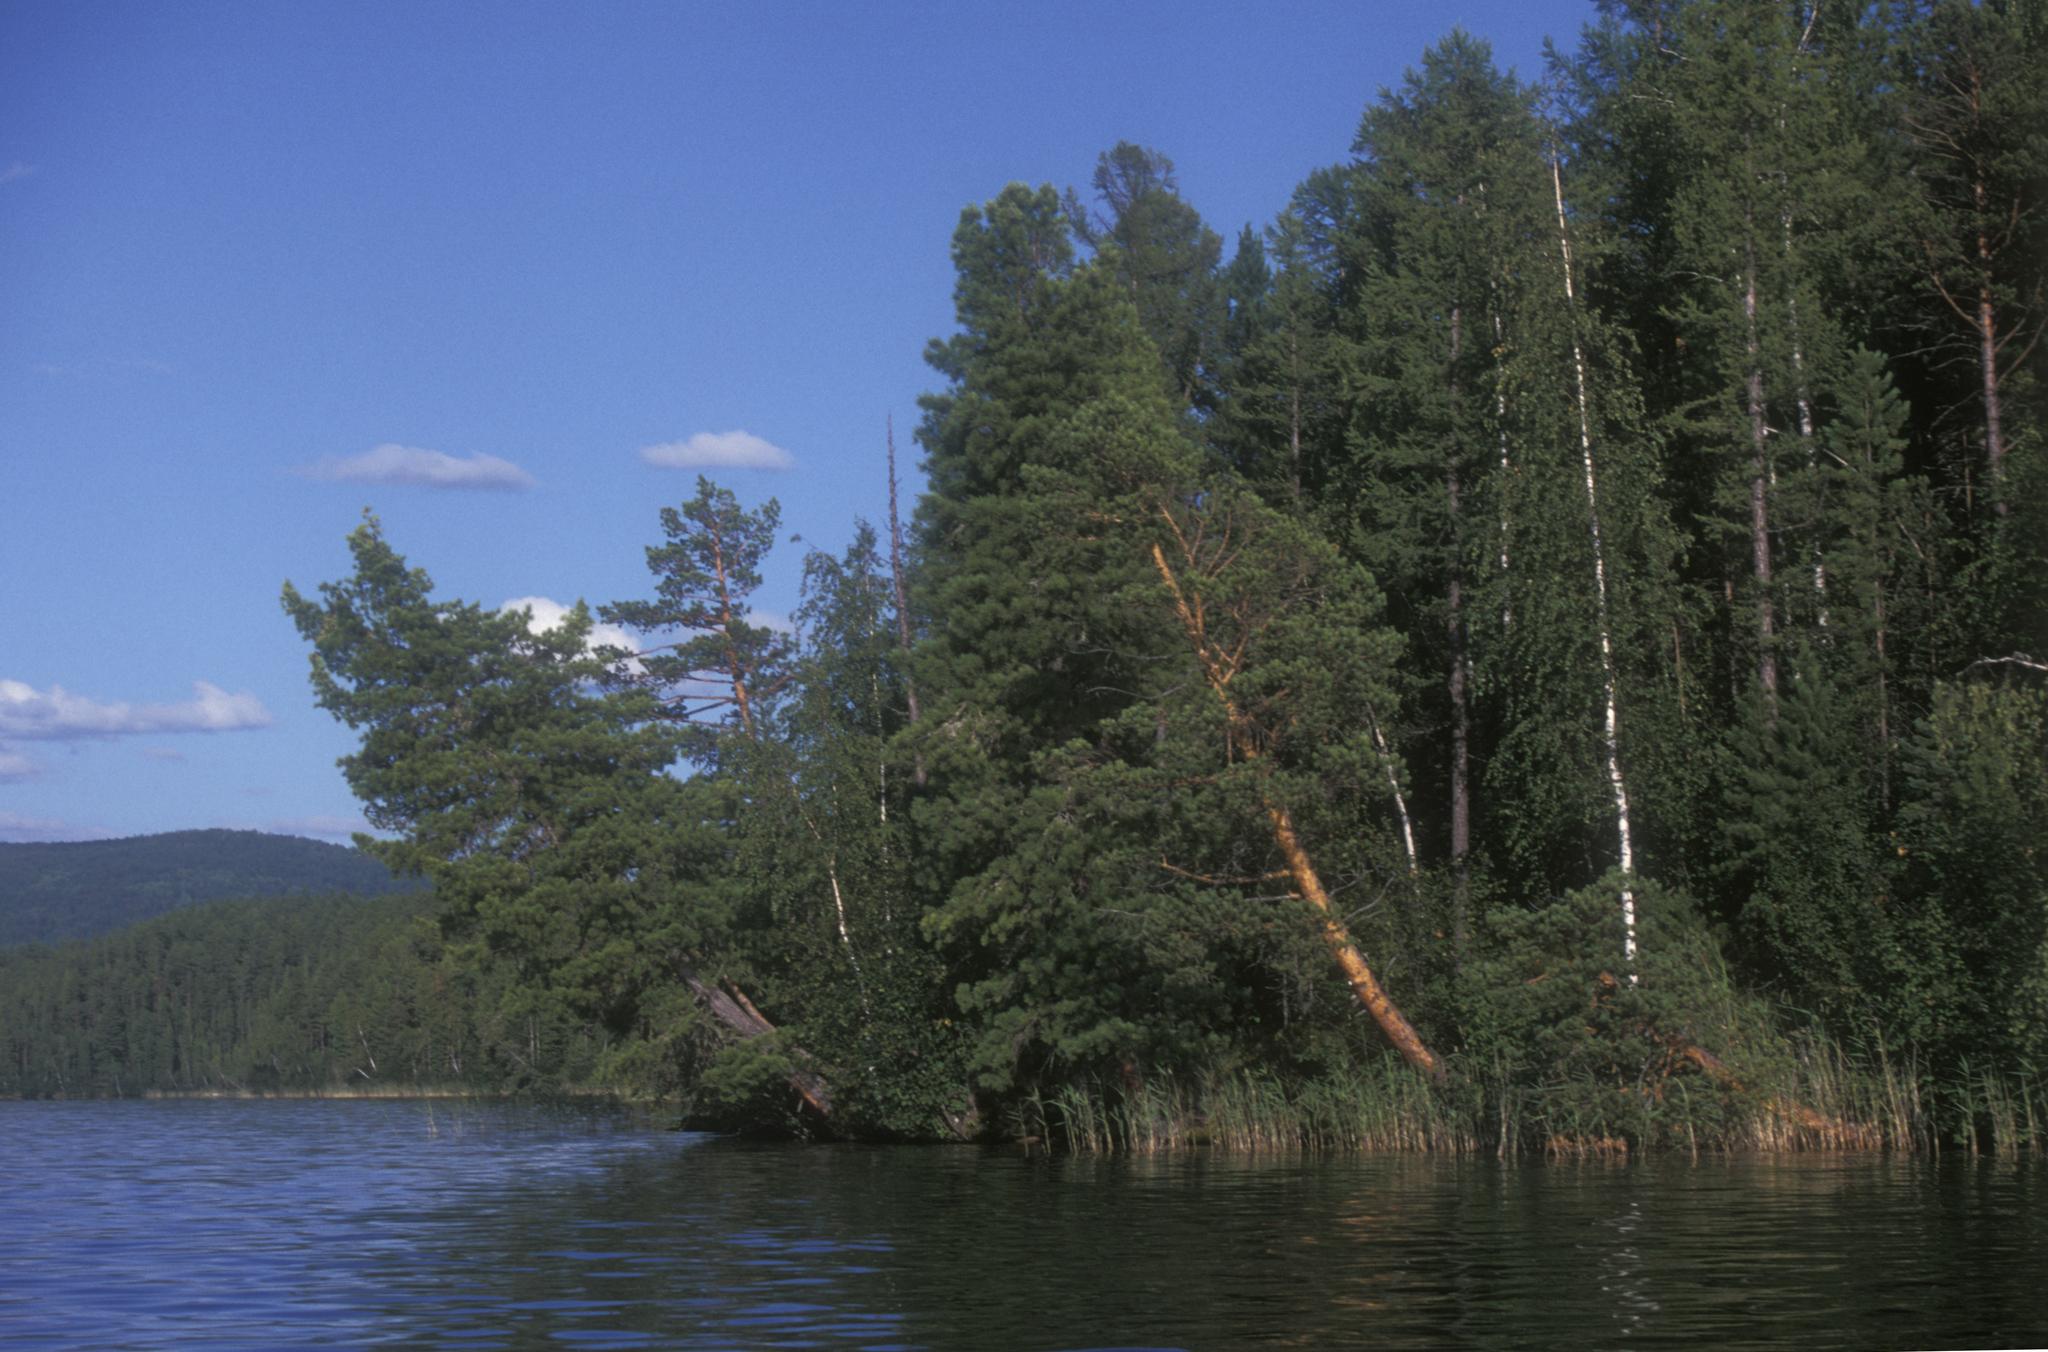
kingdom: Plantae
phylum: Tracheophyta
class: Pinopsida
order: Pinales
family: Pinaceae
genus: Pinus
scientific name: Pinus sibirica
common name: Siberian pine
